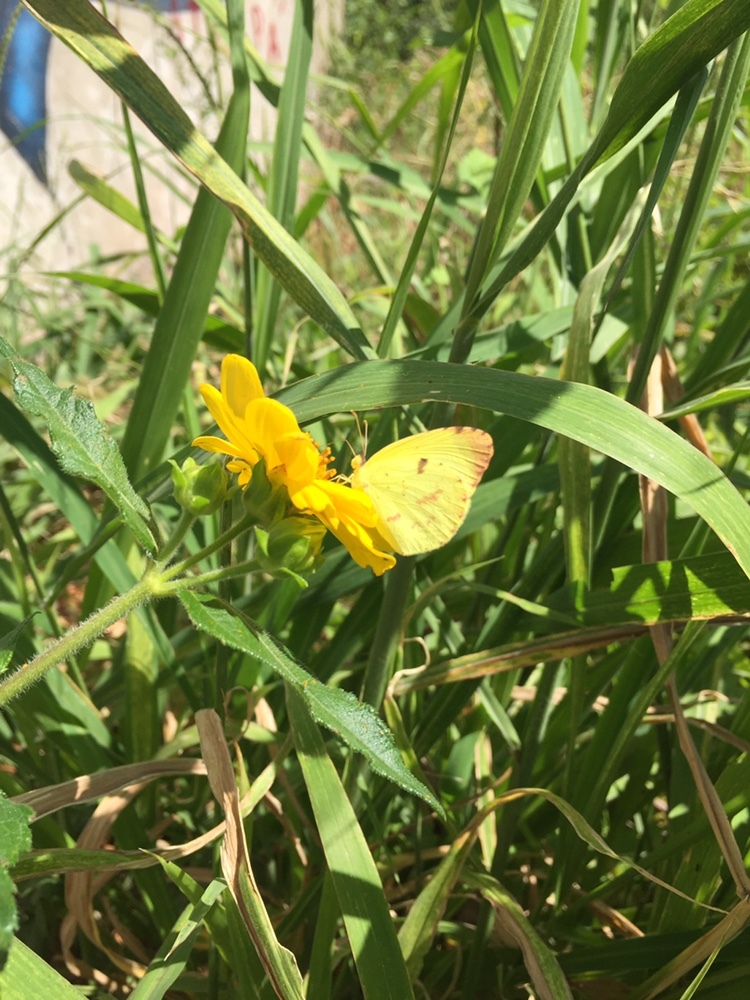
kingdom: Animalia
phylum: Arthropoda
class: Insecta
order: Lepidoptera
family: Pieridae
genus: Teriocolias
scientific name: Teriocolias
